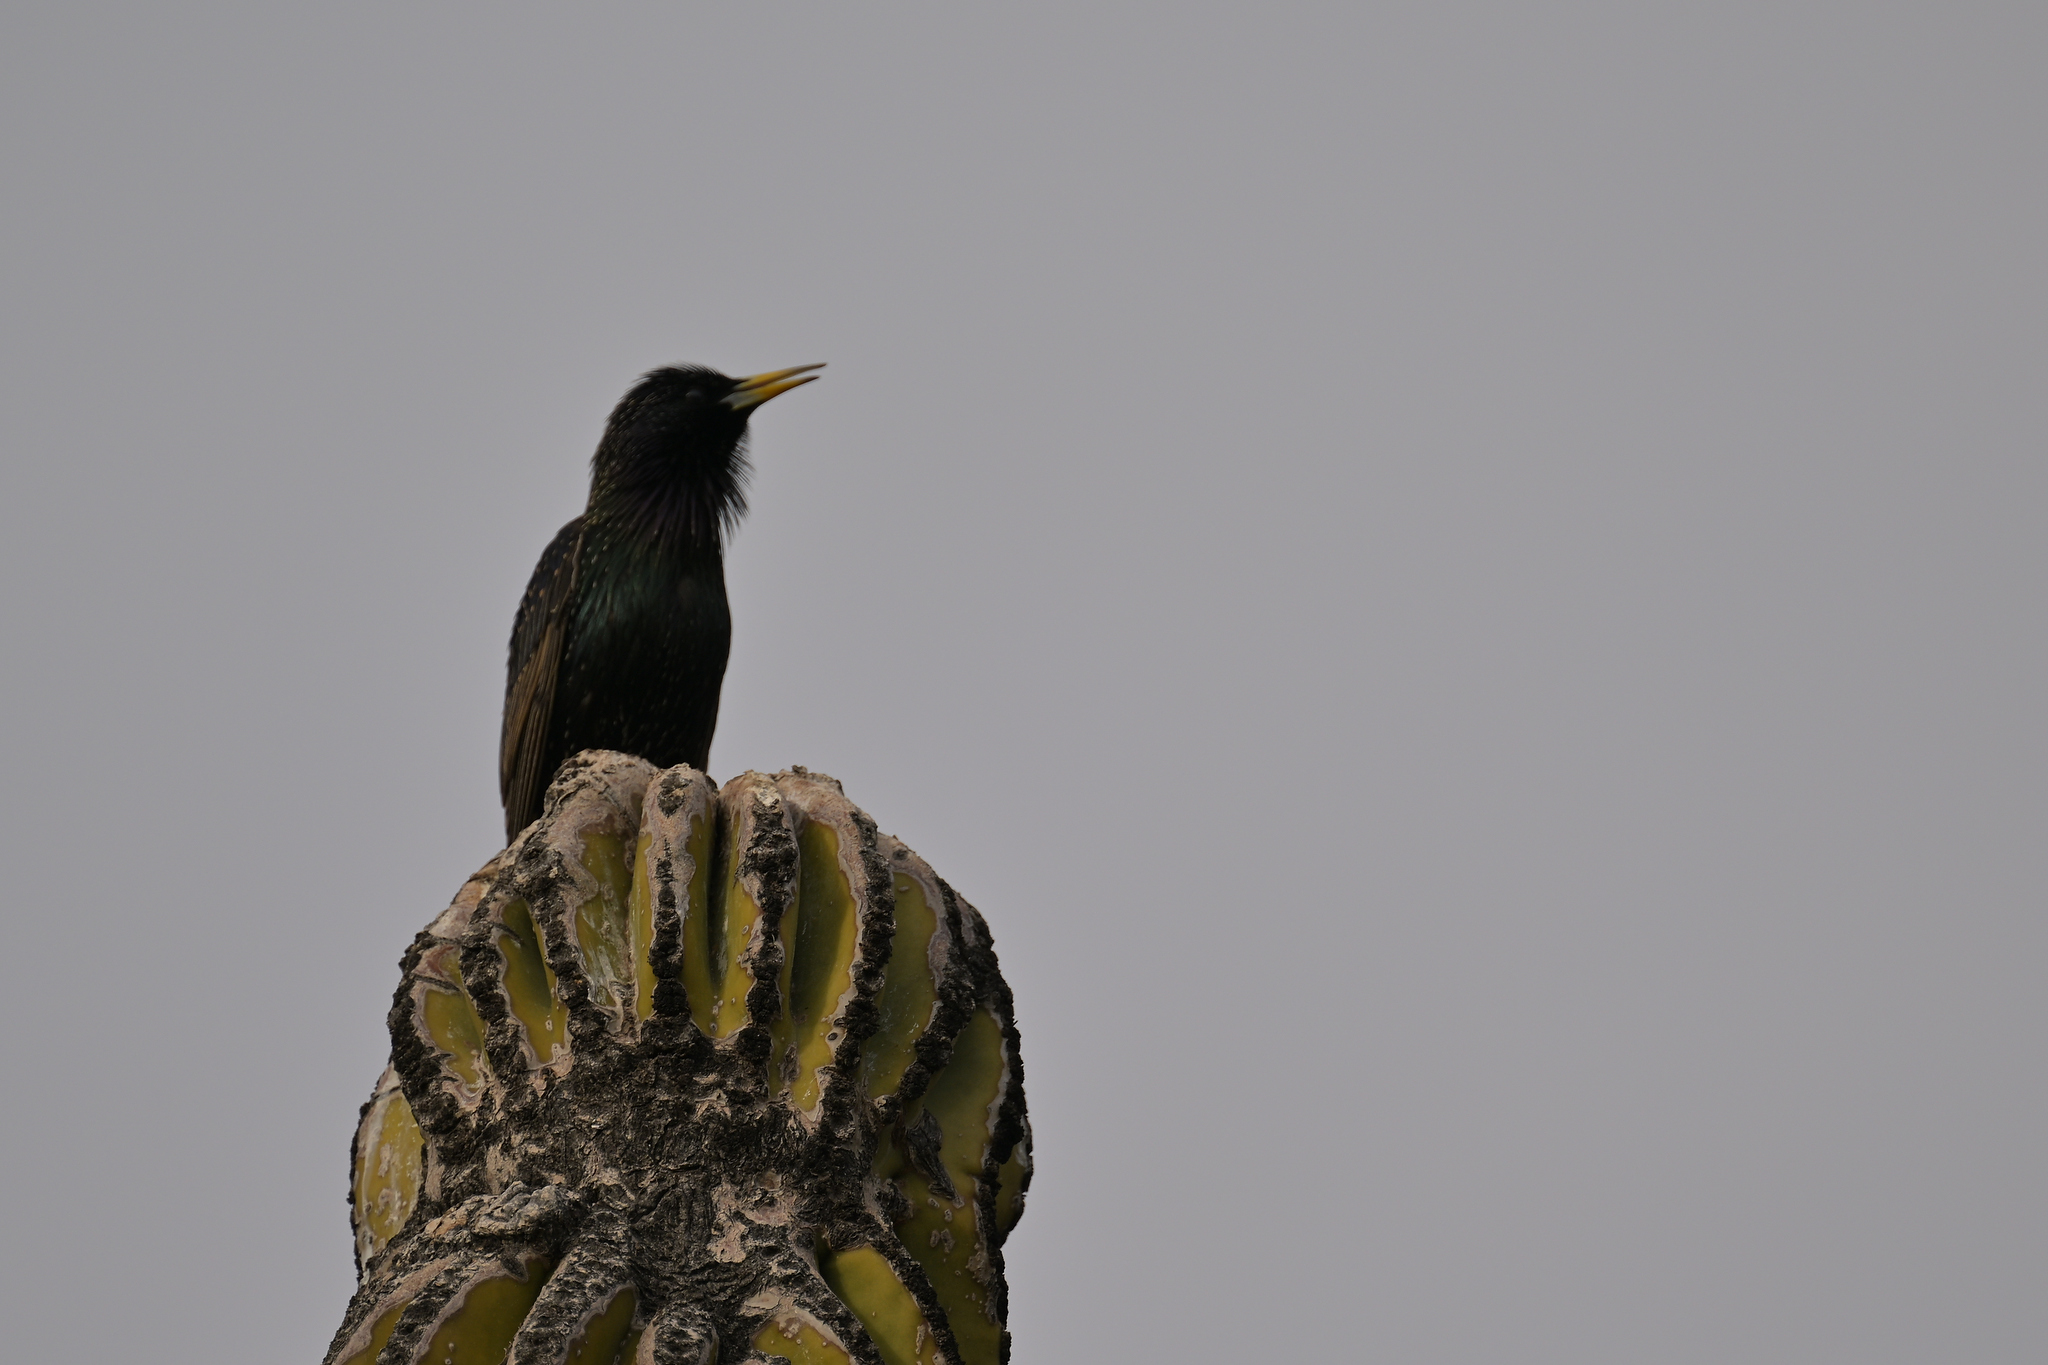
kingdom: Animalia
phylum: Chordata
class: Aves
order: Passeriformes
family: Sturnidae
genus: Sturnus
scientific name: Sturnus vulgaris
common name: Common starling
